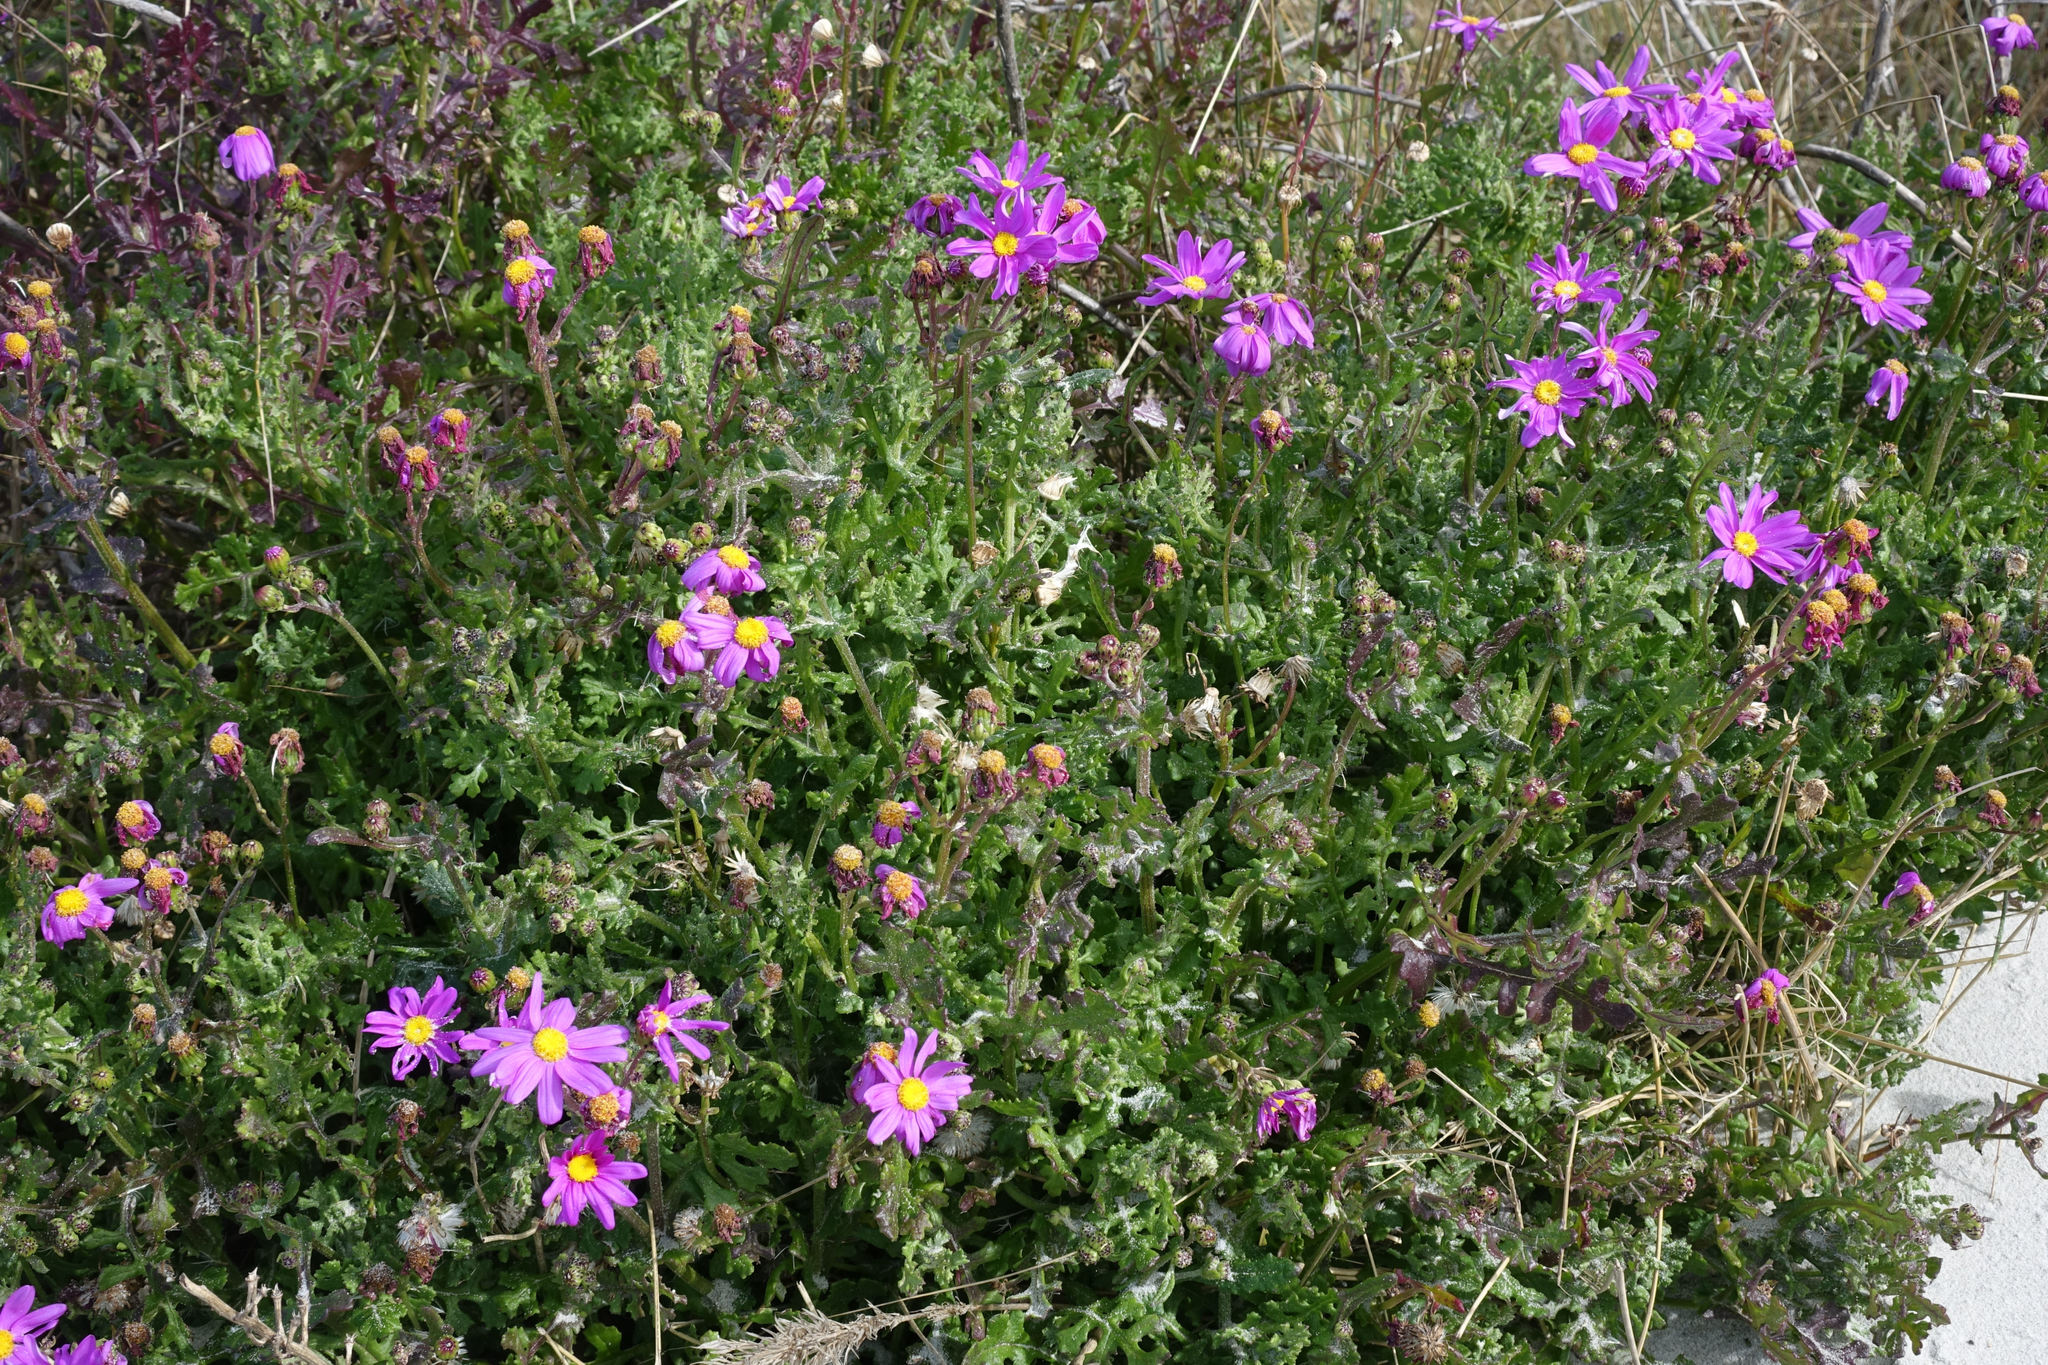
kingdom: Plantae
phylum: Tracheophyta
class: Magnoliopsida
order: Asterales
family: Asteraceae
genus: Senecio
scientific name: Senecio elegans
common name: Purple groundsel
